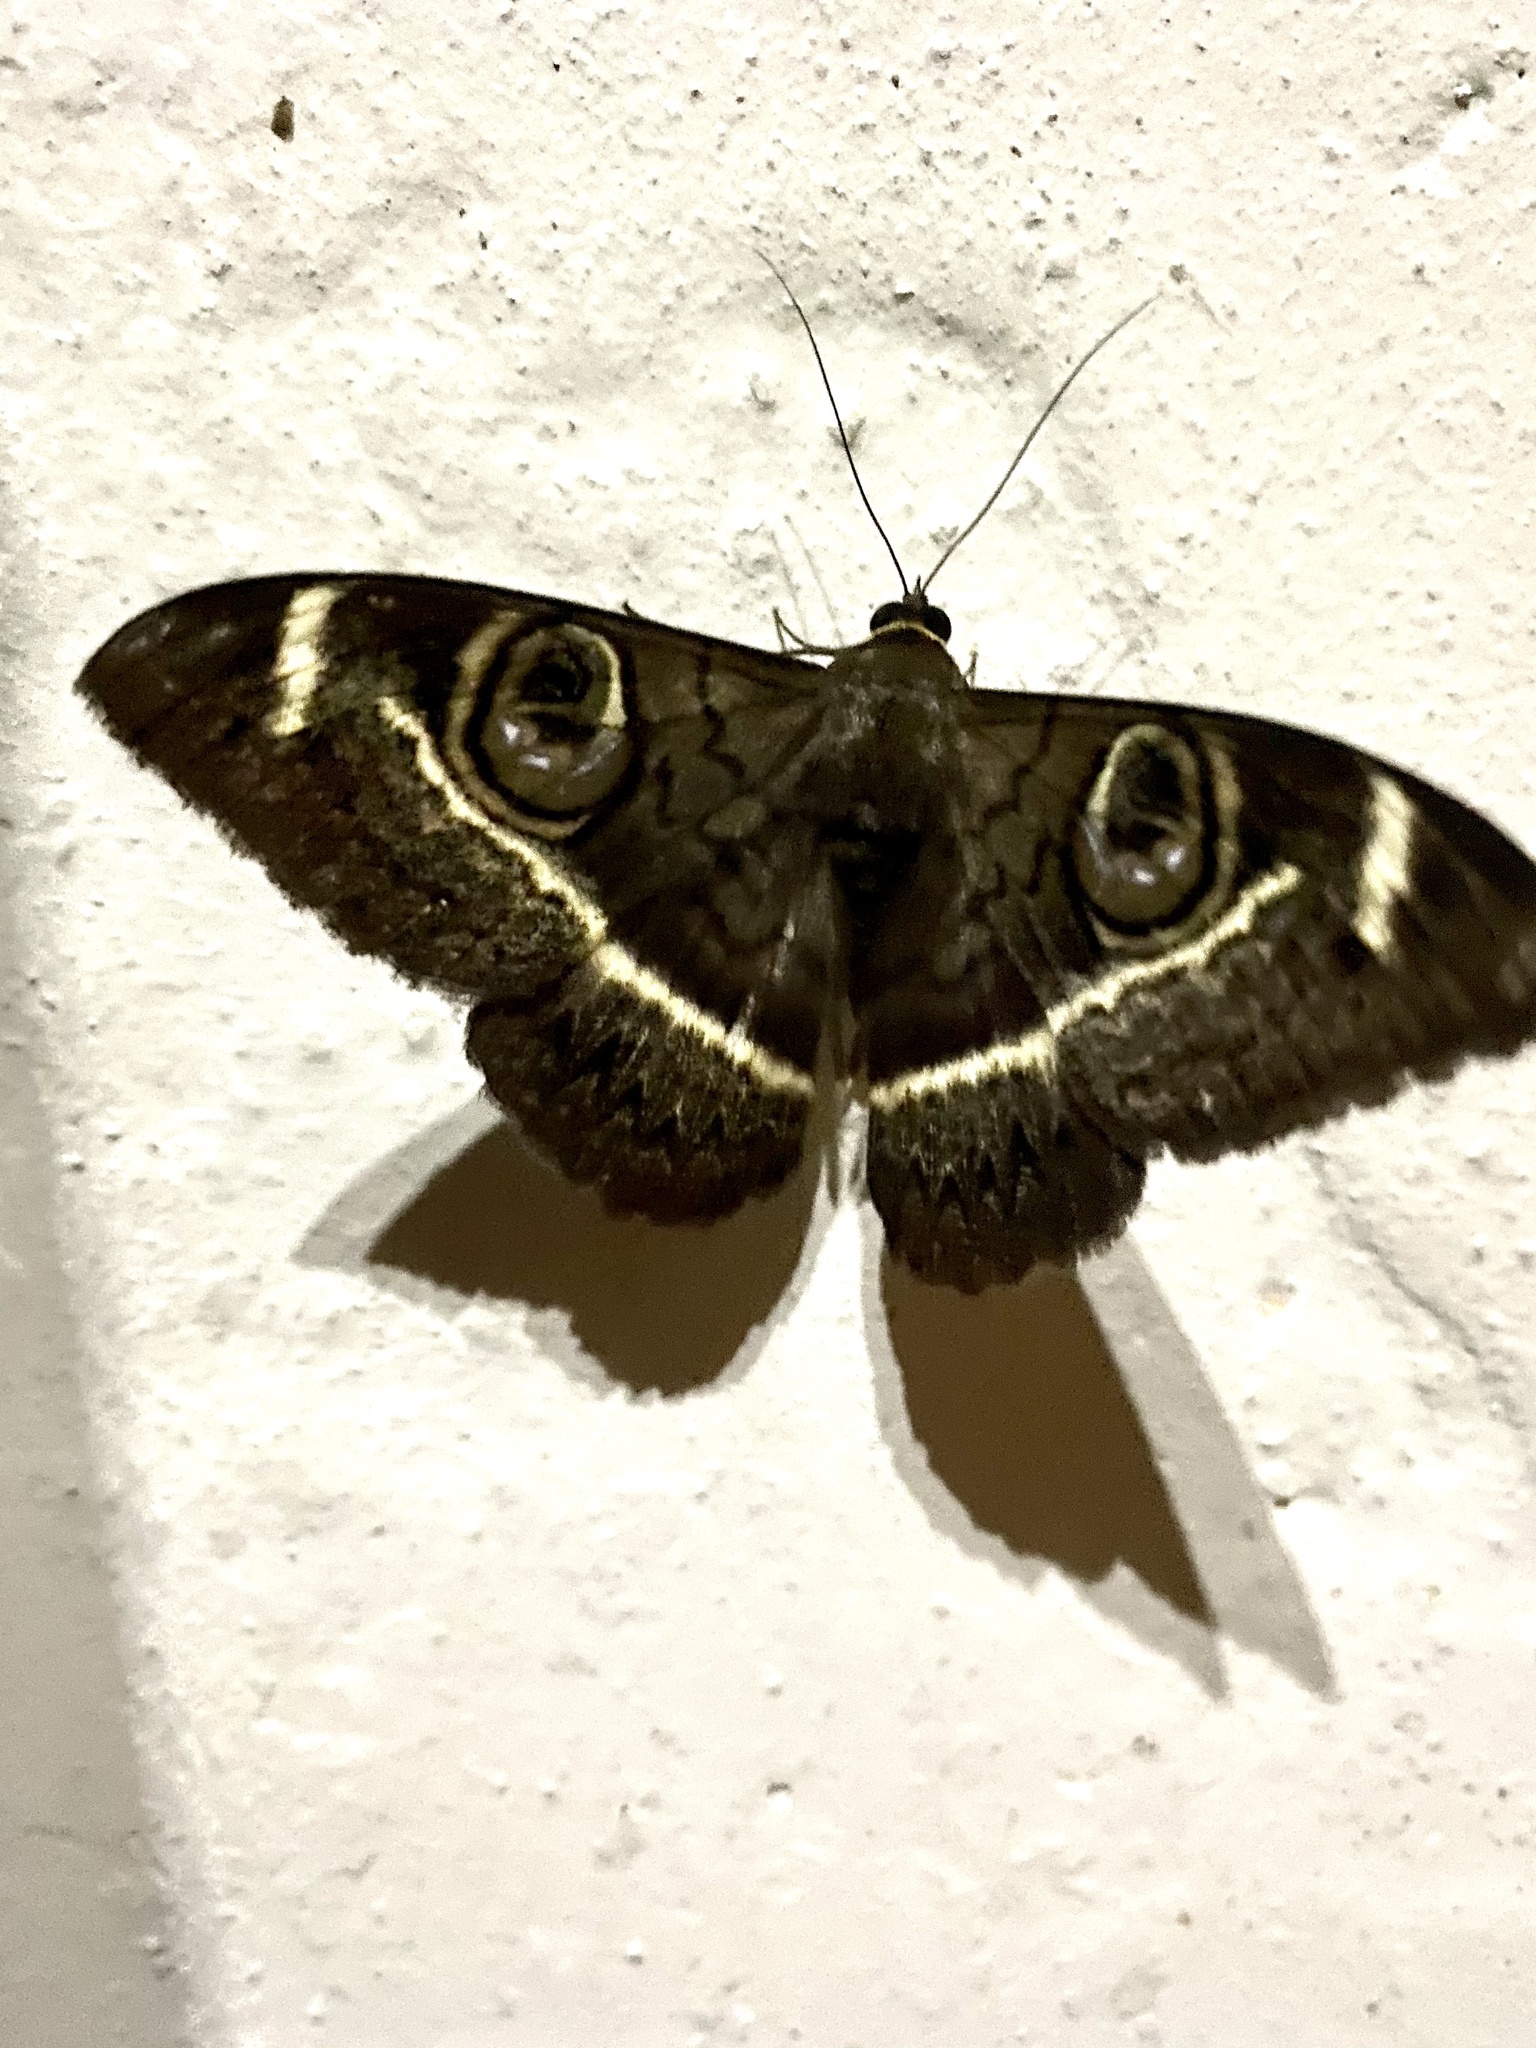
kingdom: Animalia
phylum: Arthropoda
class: Insecta
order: Lepidoptera
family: Erebidae
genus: Cyligramma
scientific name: Cyligramma latona
